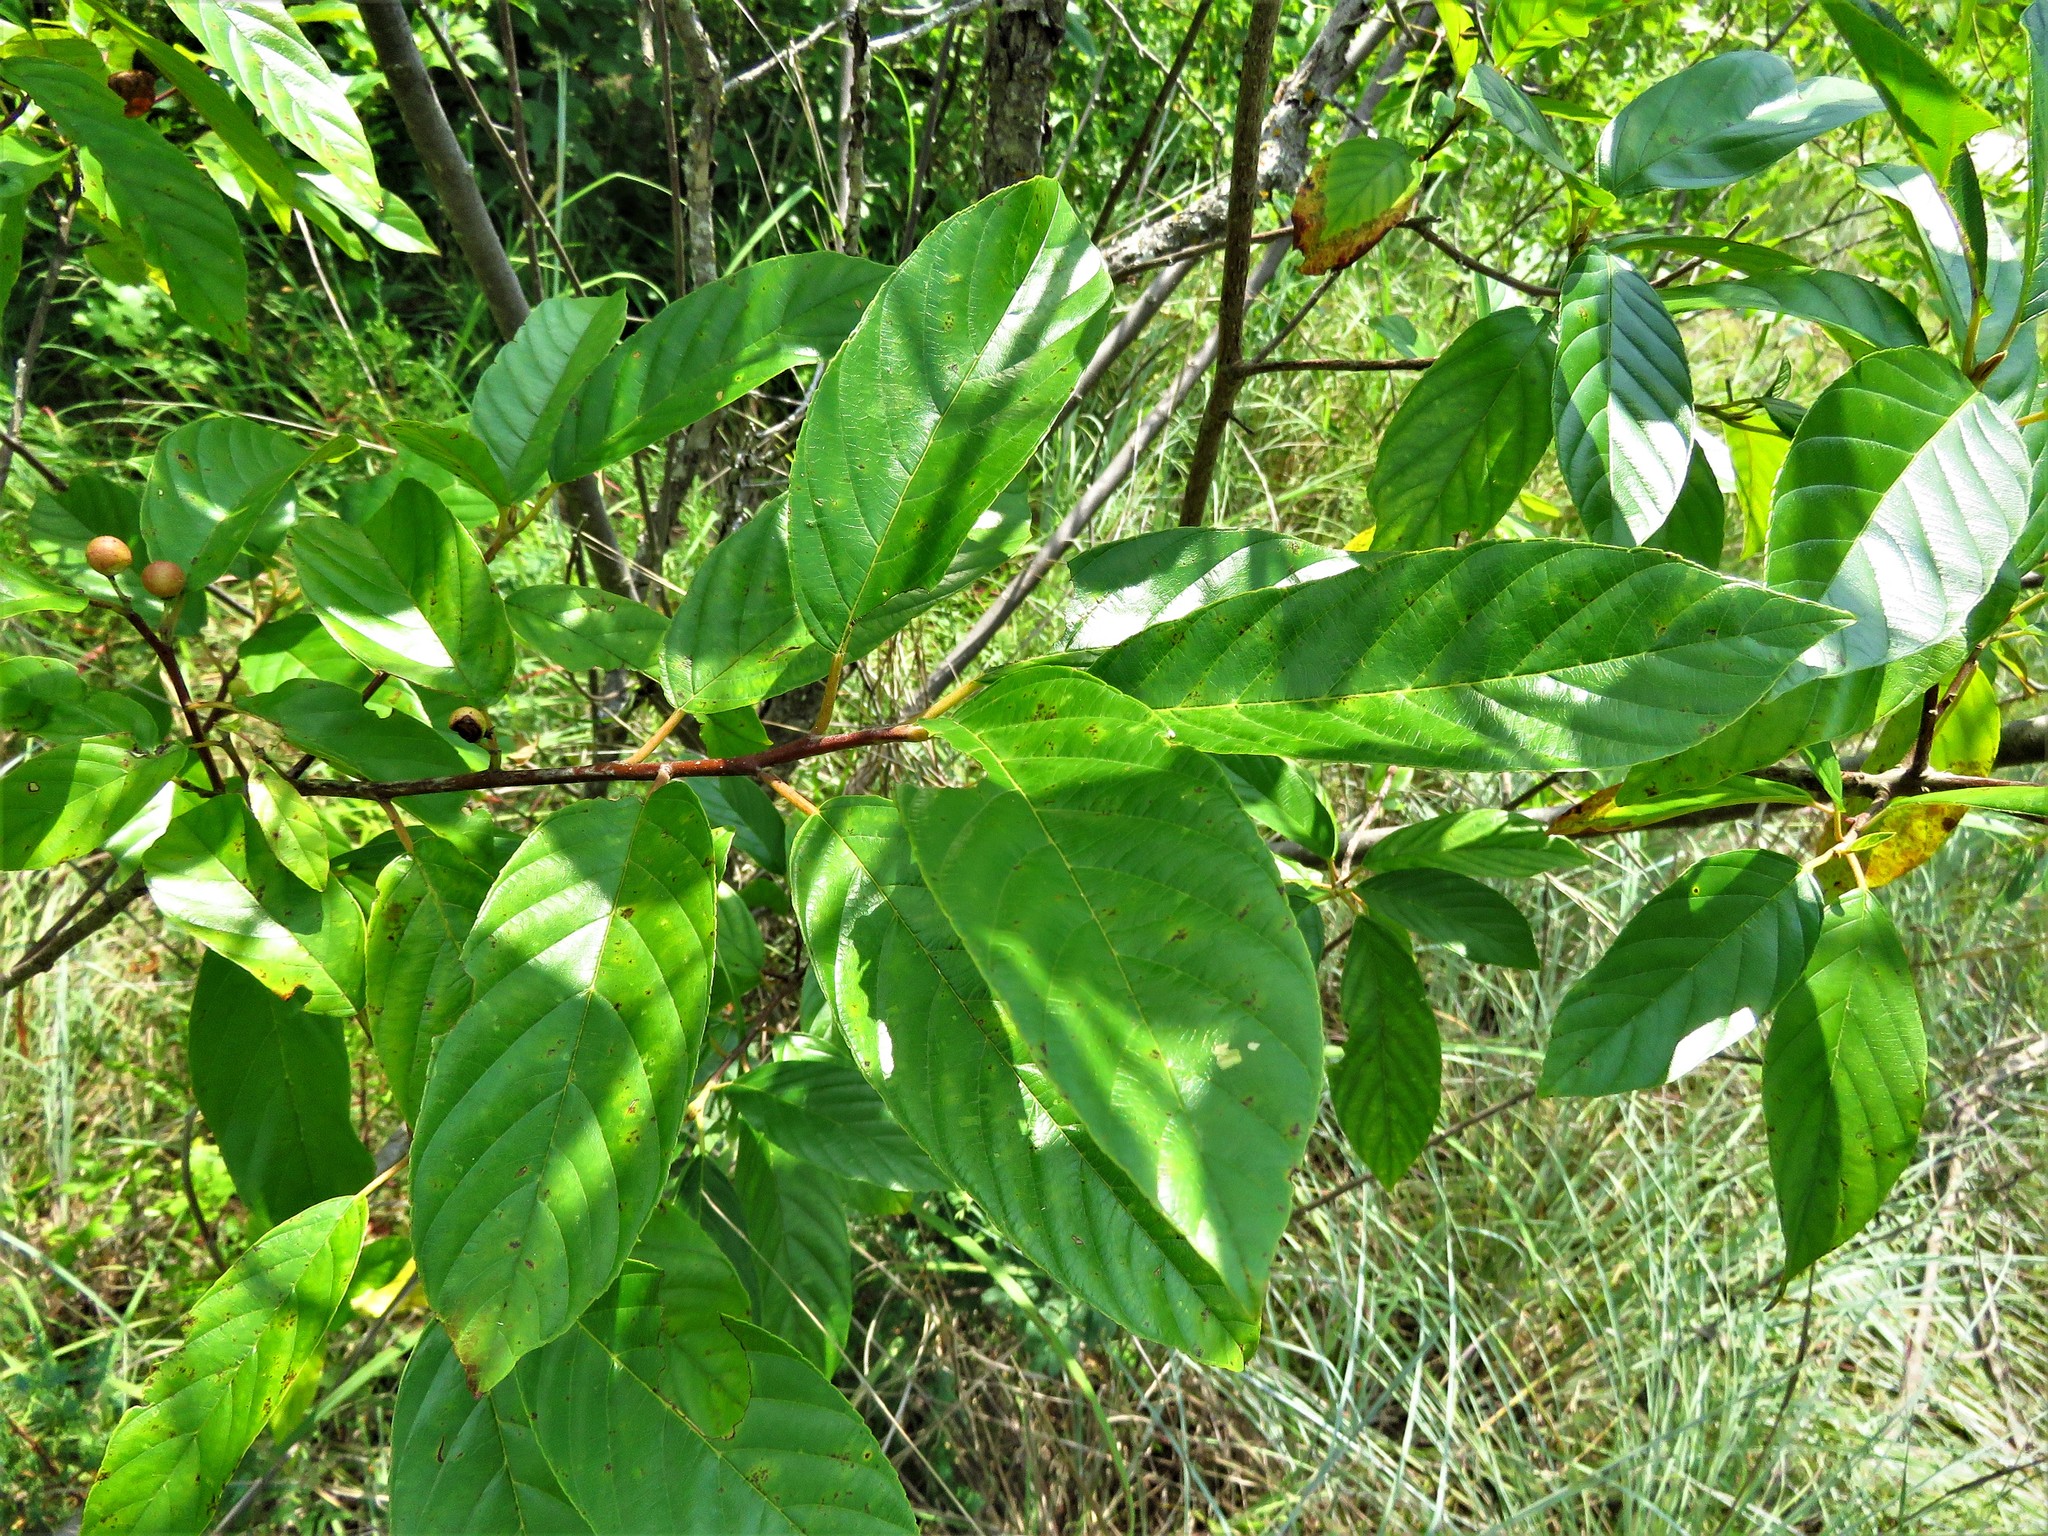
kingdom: Plantae
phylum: Tracheophyta
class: Magnoliopsida
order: Rosales
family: Rhamnaceae
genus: Frangula
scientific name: Frangula caroliniana
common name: Carolina buckthorn
